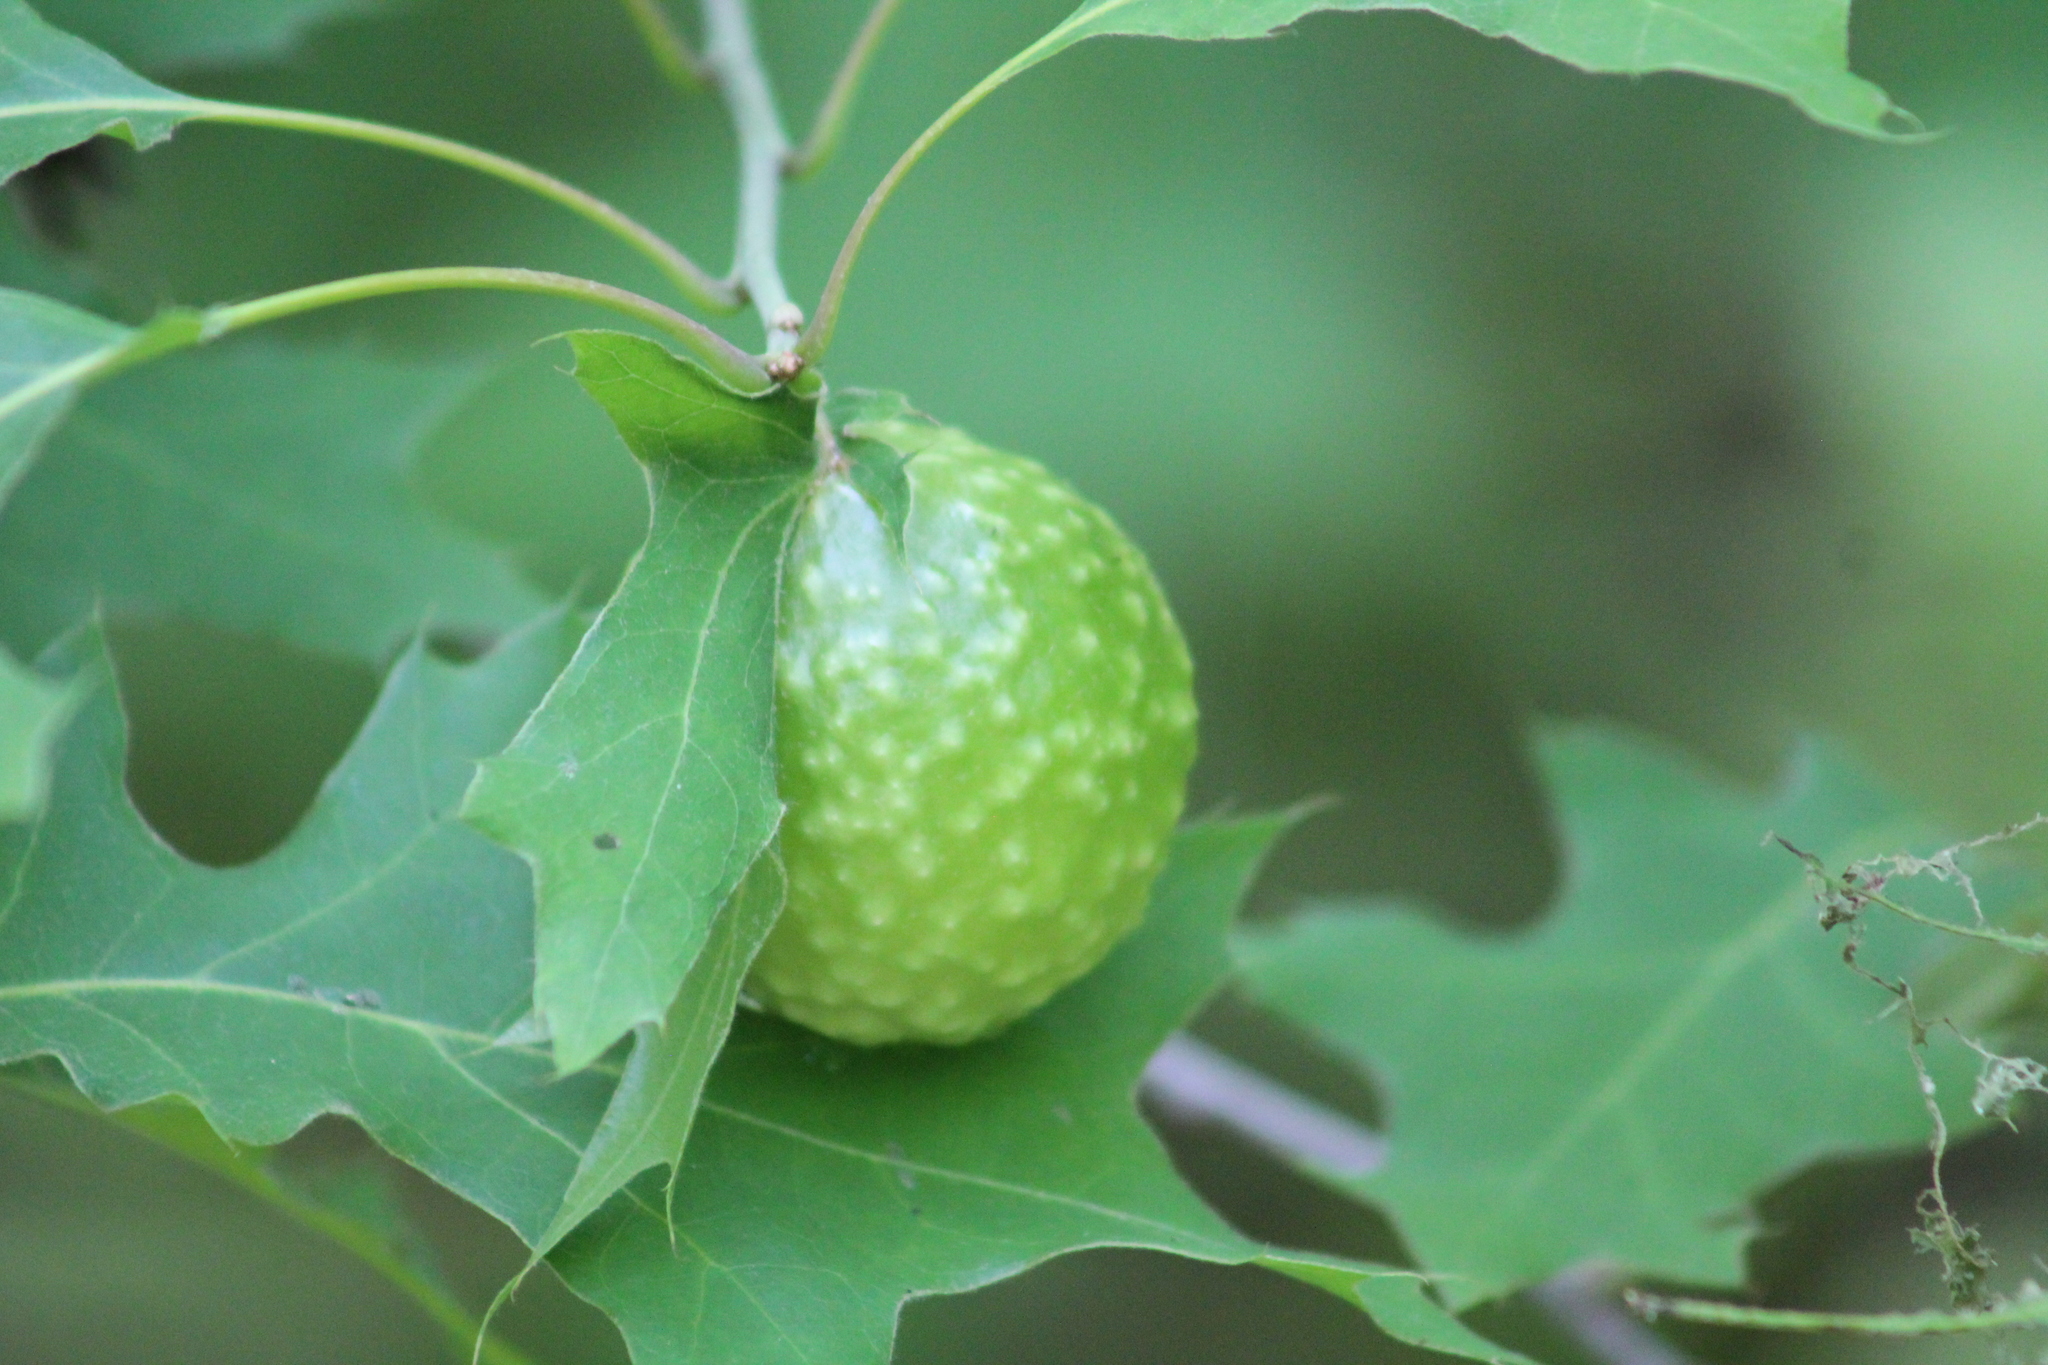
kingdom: Animalia
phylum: Arthropoda
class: Insecta
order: Hymenoptera
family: Cynipidae
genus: Amphibolips
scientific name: Amphibolips
